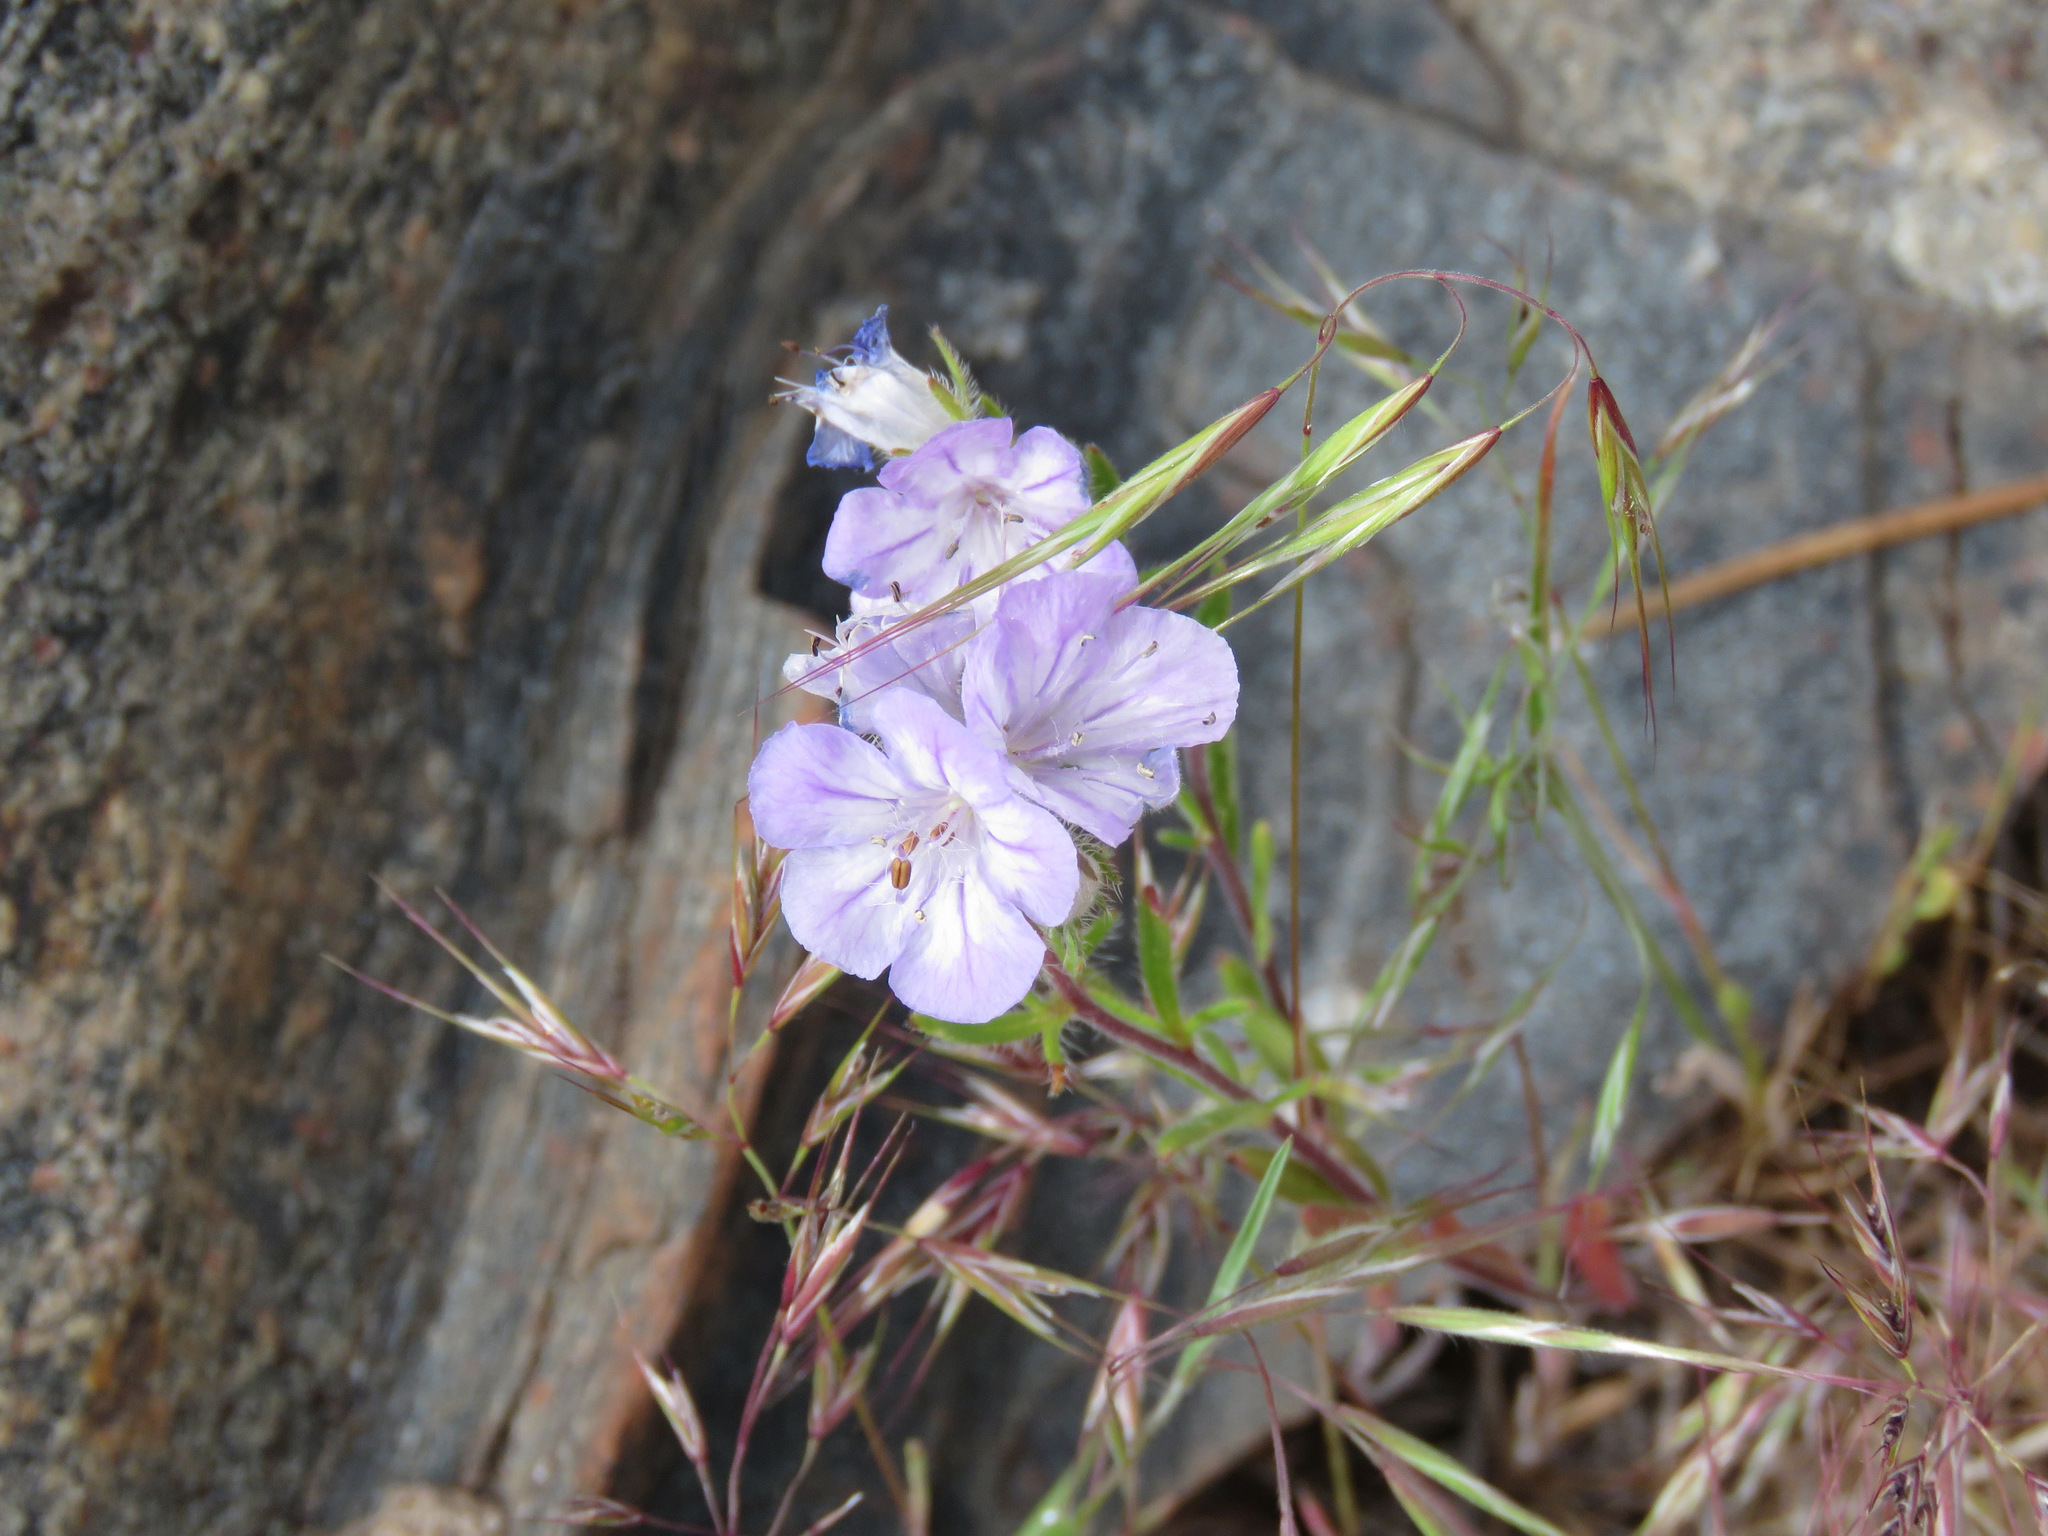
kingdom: Plantae
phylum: Tracheophyta
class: Magnoliopsida
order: Boraginales
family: Hydrophyllaceae
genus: Phacelia
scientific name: Phacelia linearis
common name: Linear-leaved phacelia
